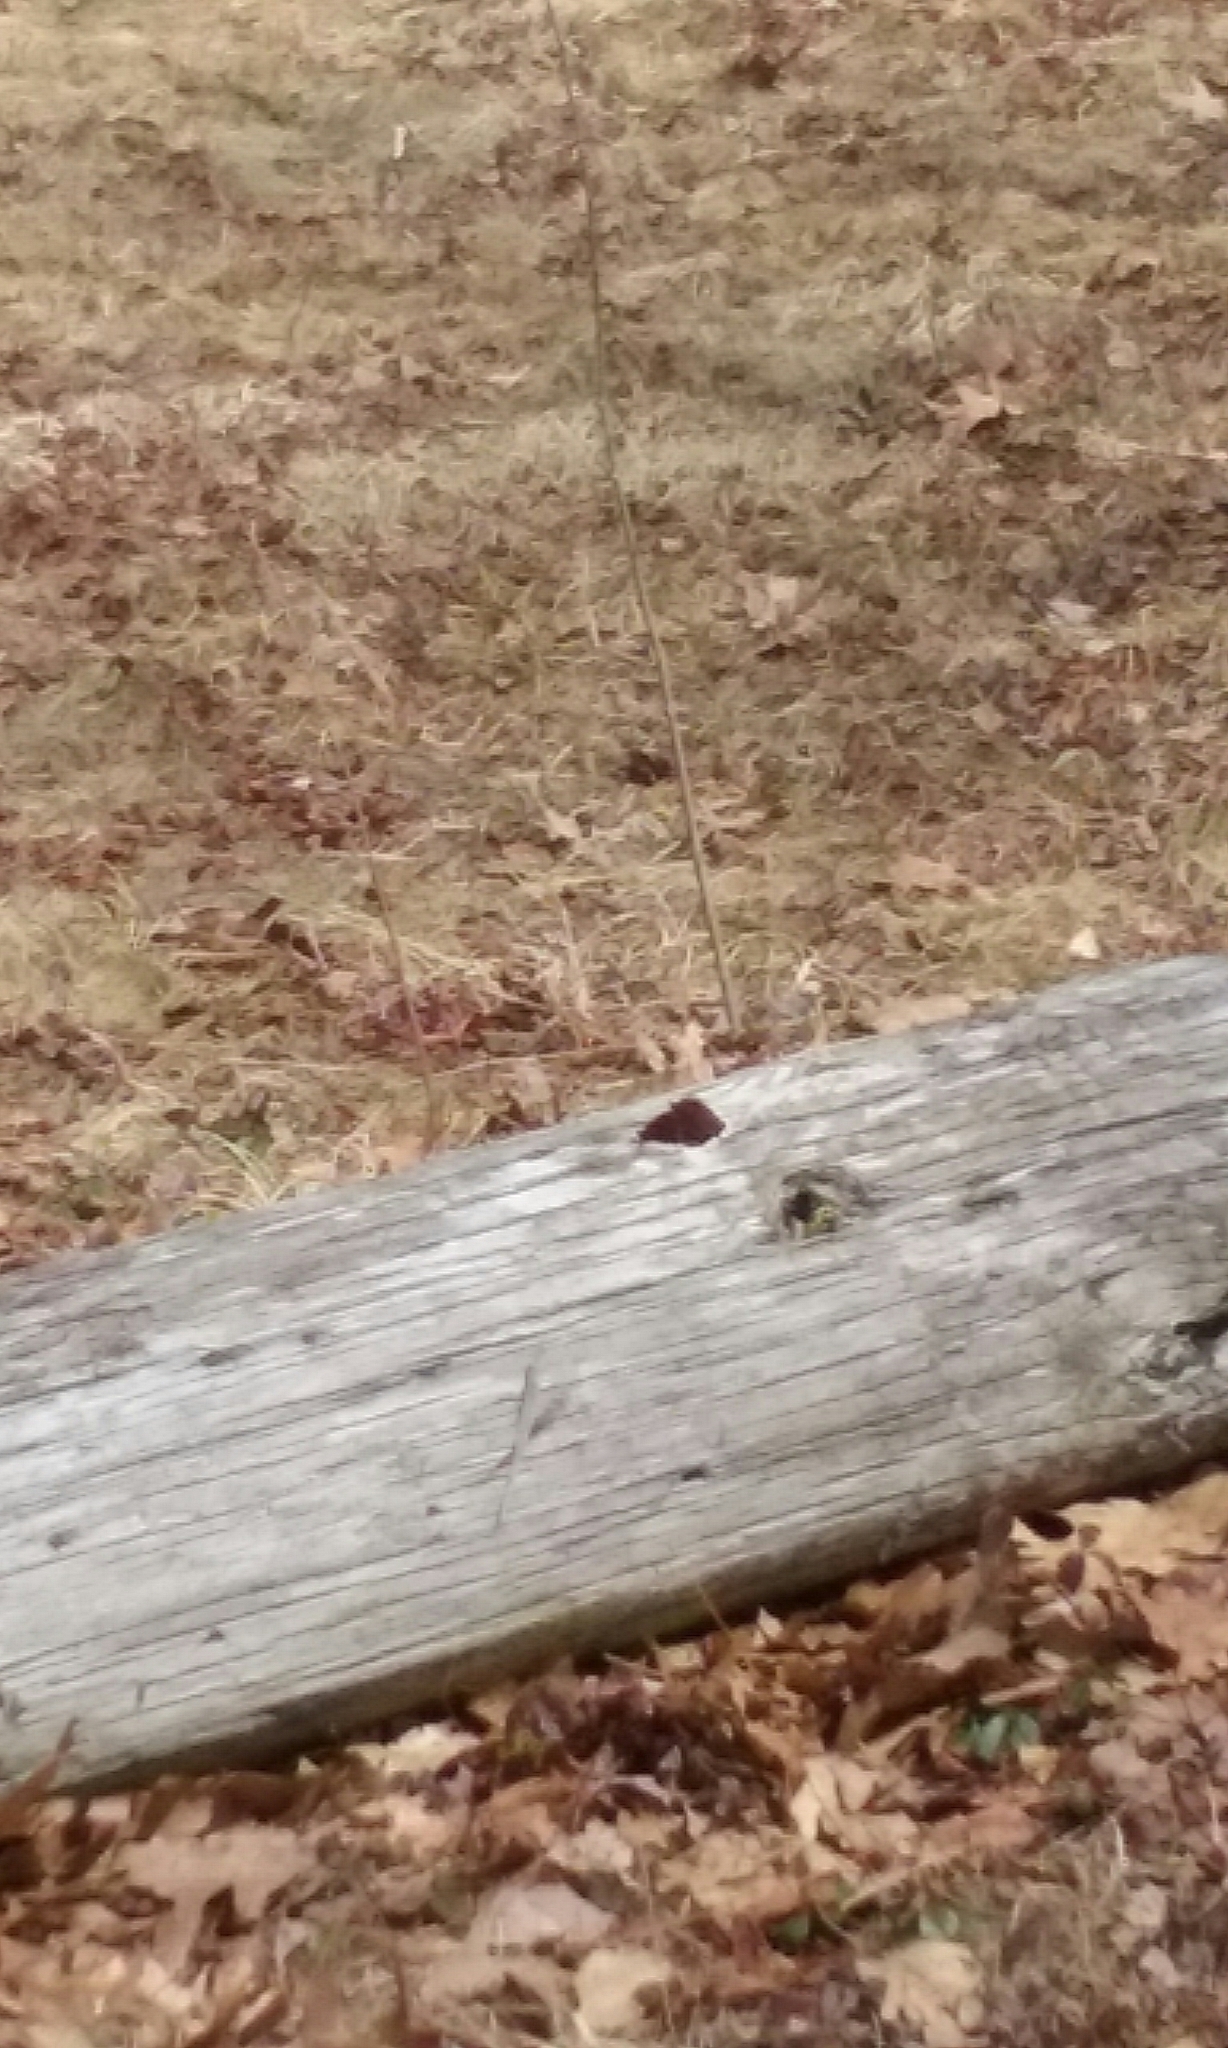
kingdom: Animalia
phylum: Arthropoda
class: Insecta
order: Lepidoptera
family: Nymphalidae
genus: Nymphalis
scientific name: Nymphalis antiopa
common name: Camberwell beauty
